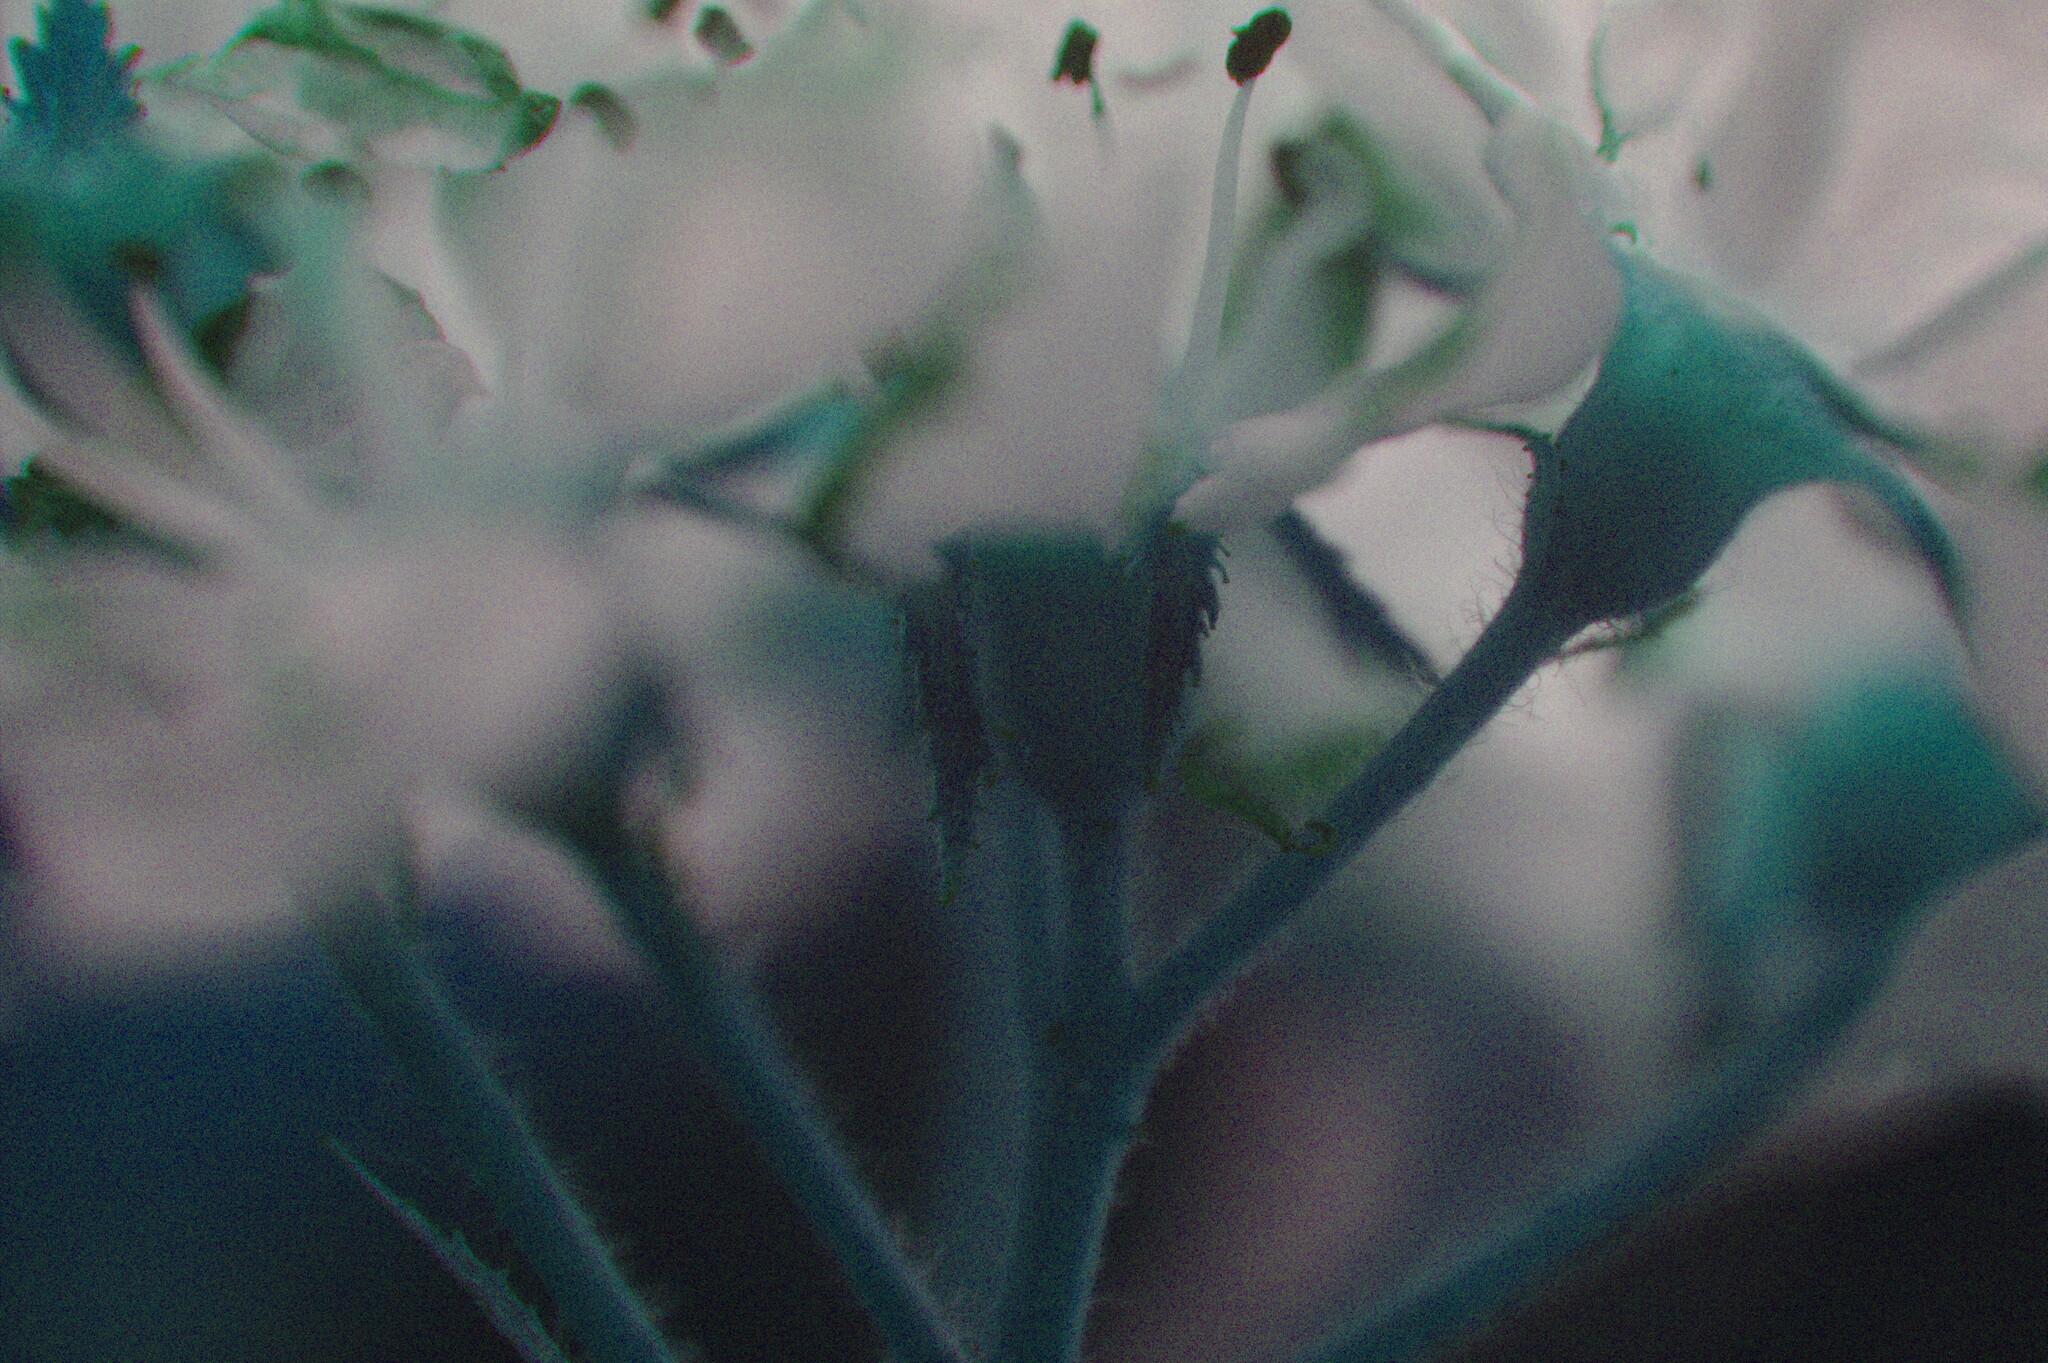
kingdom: Plantae
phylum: Tracheophyta
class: Magnoliopsida
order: Rosales
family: Rosaceae
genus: Crataegus
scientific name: Crataegus macracantha
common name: Large-thorn hawthorn
